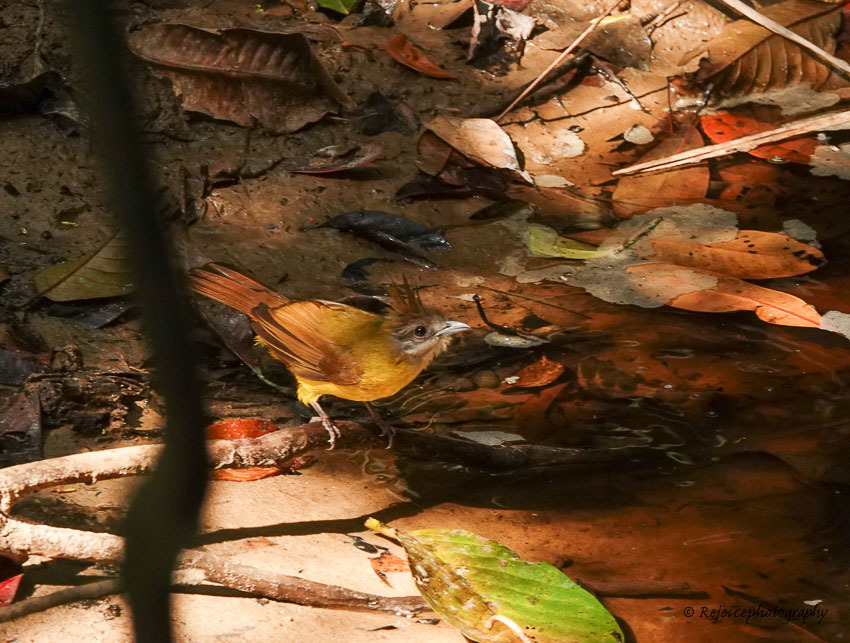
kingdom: Animalia
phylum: Chordata
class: Aves
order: Passeriformes
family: Pycnonotidae
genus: Alophoixus
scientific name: Alophoixus flaveolus
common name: White-throated bulbul
